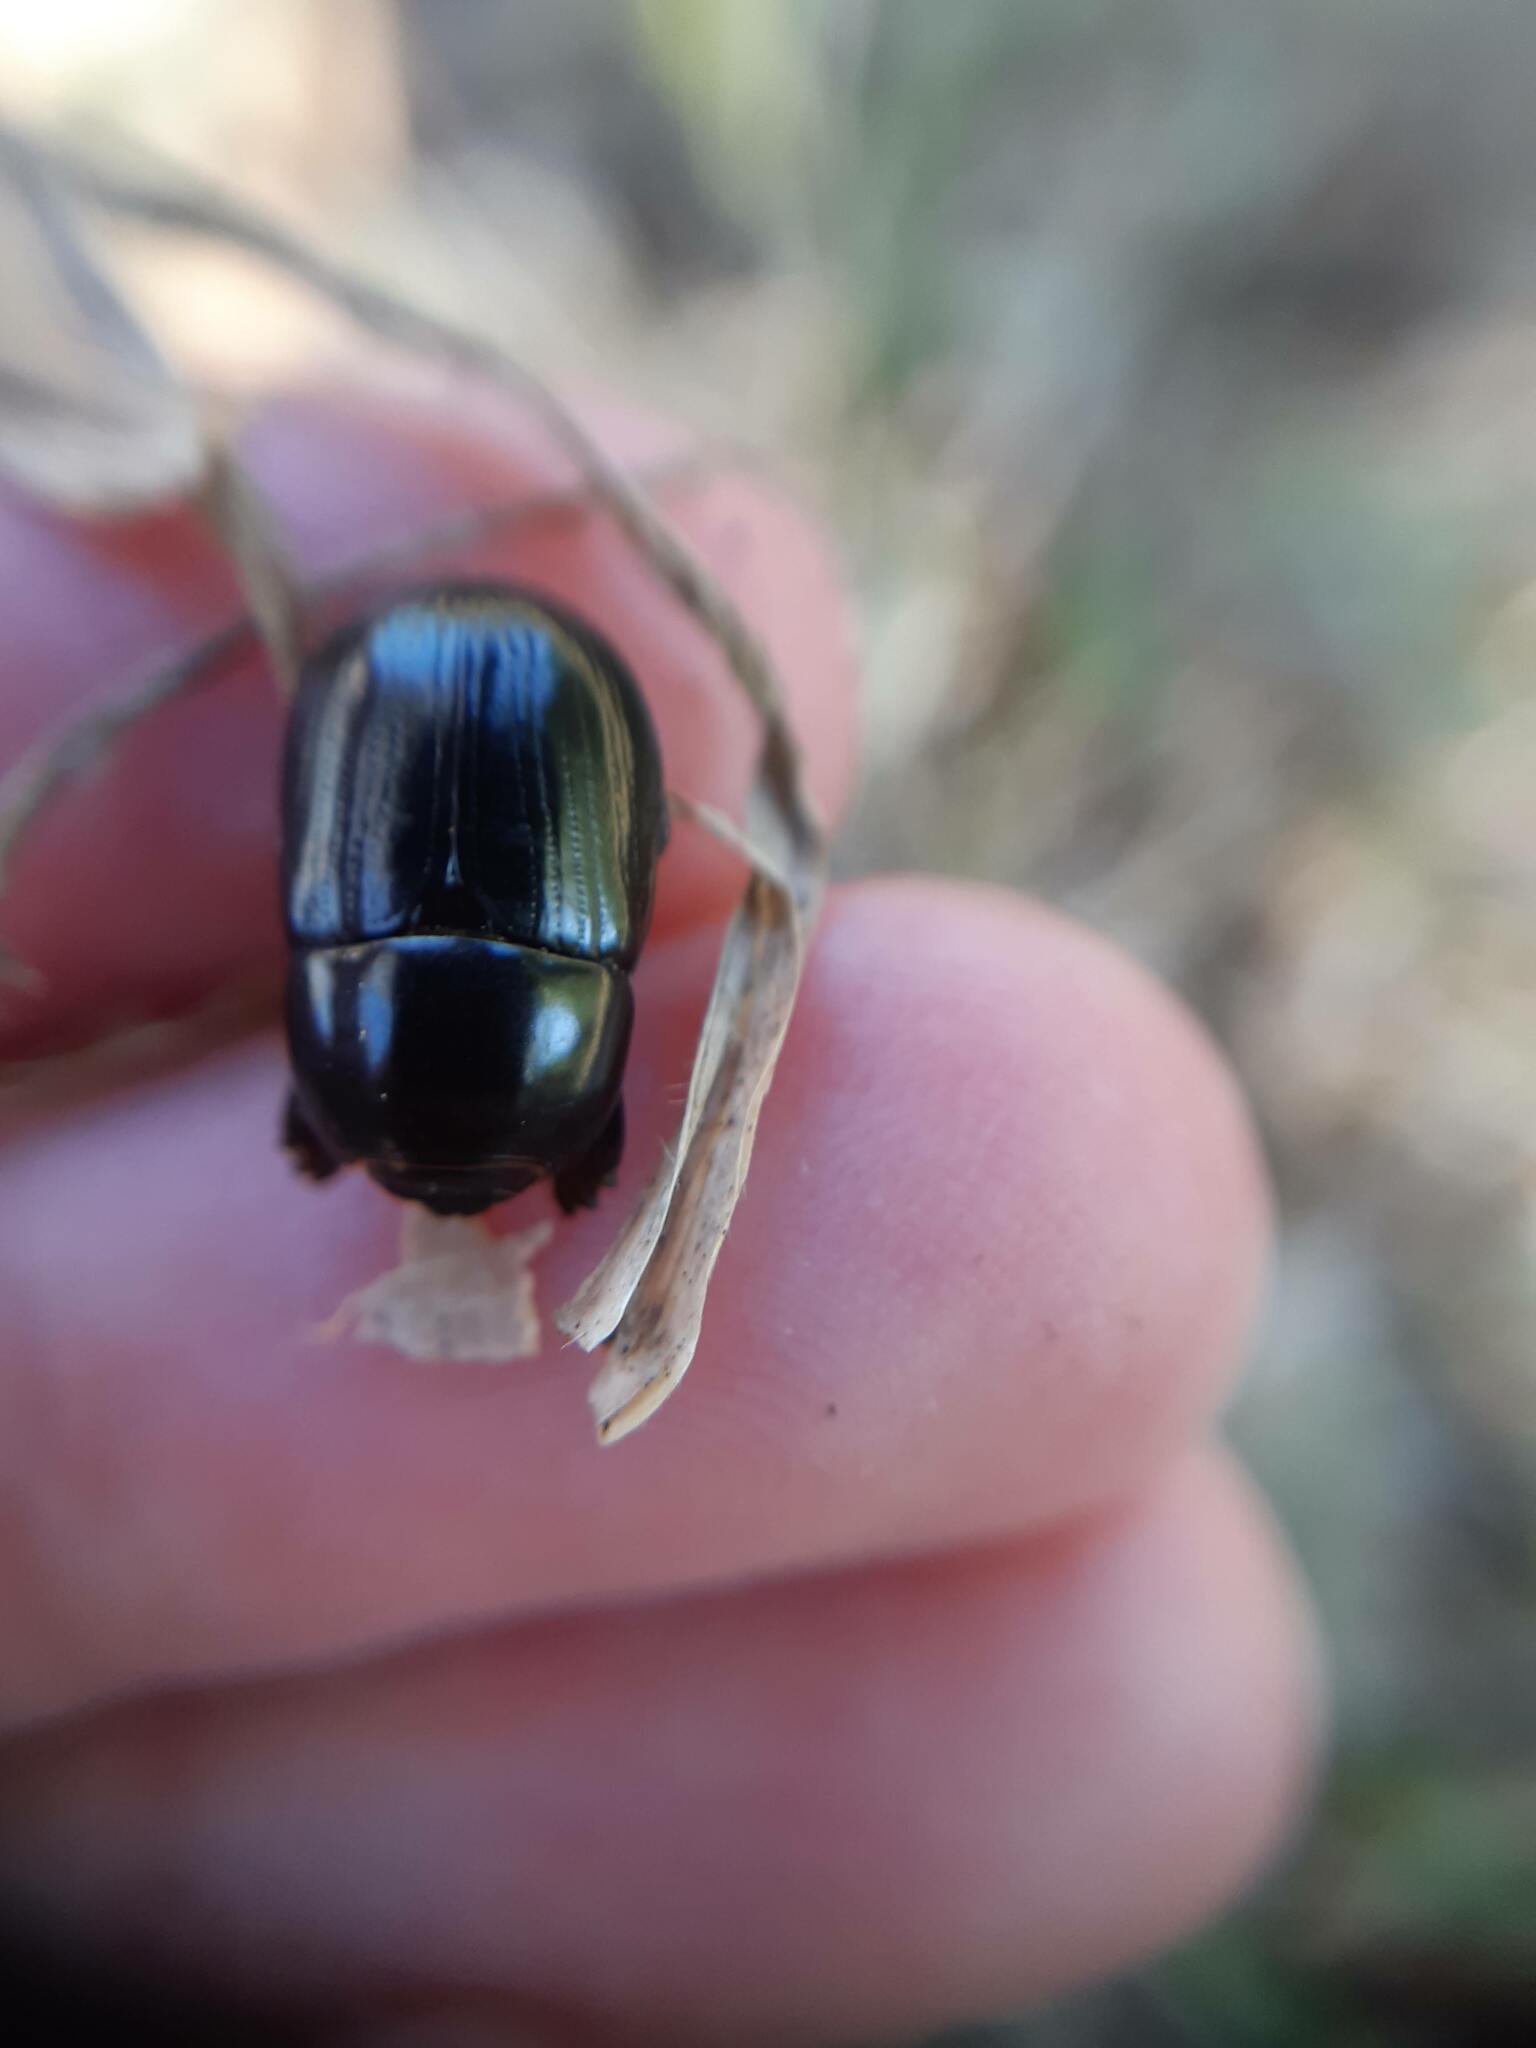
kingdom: Animalia
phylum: Arthropoda
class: Insecta
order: Coleoptera
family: Scarabaeidae
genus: Heteronychus
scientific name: Heteronychus arator
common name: African black beetle
